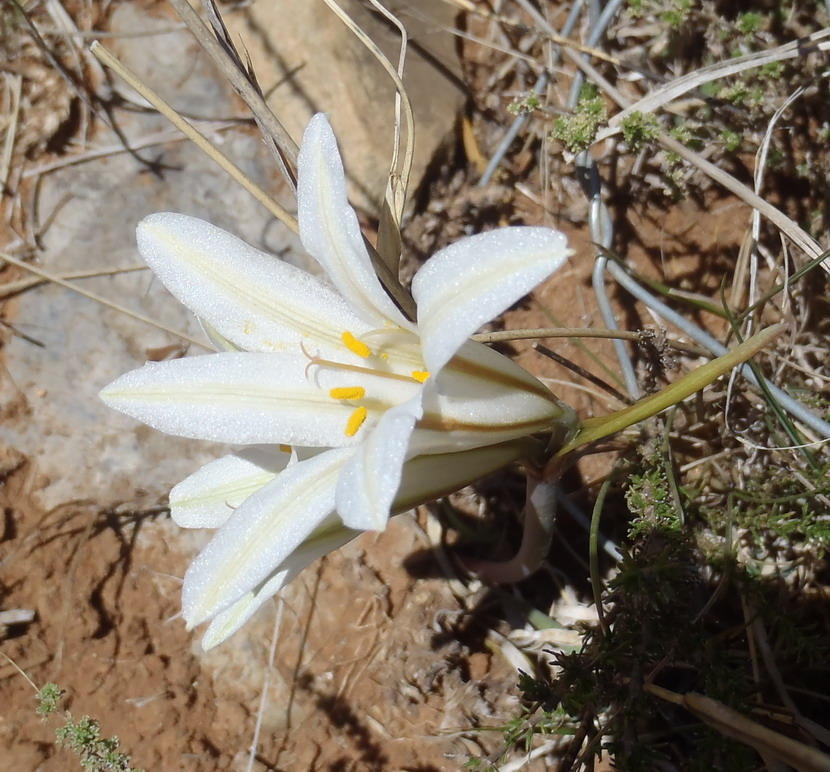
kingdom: Plantae
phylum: Tracheophyta
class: Liliopsida
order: Asparagales
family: Amaryllidaceae
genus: Cyrtanthus
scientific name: Cyrtanthus smithiae
